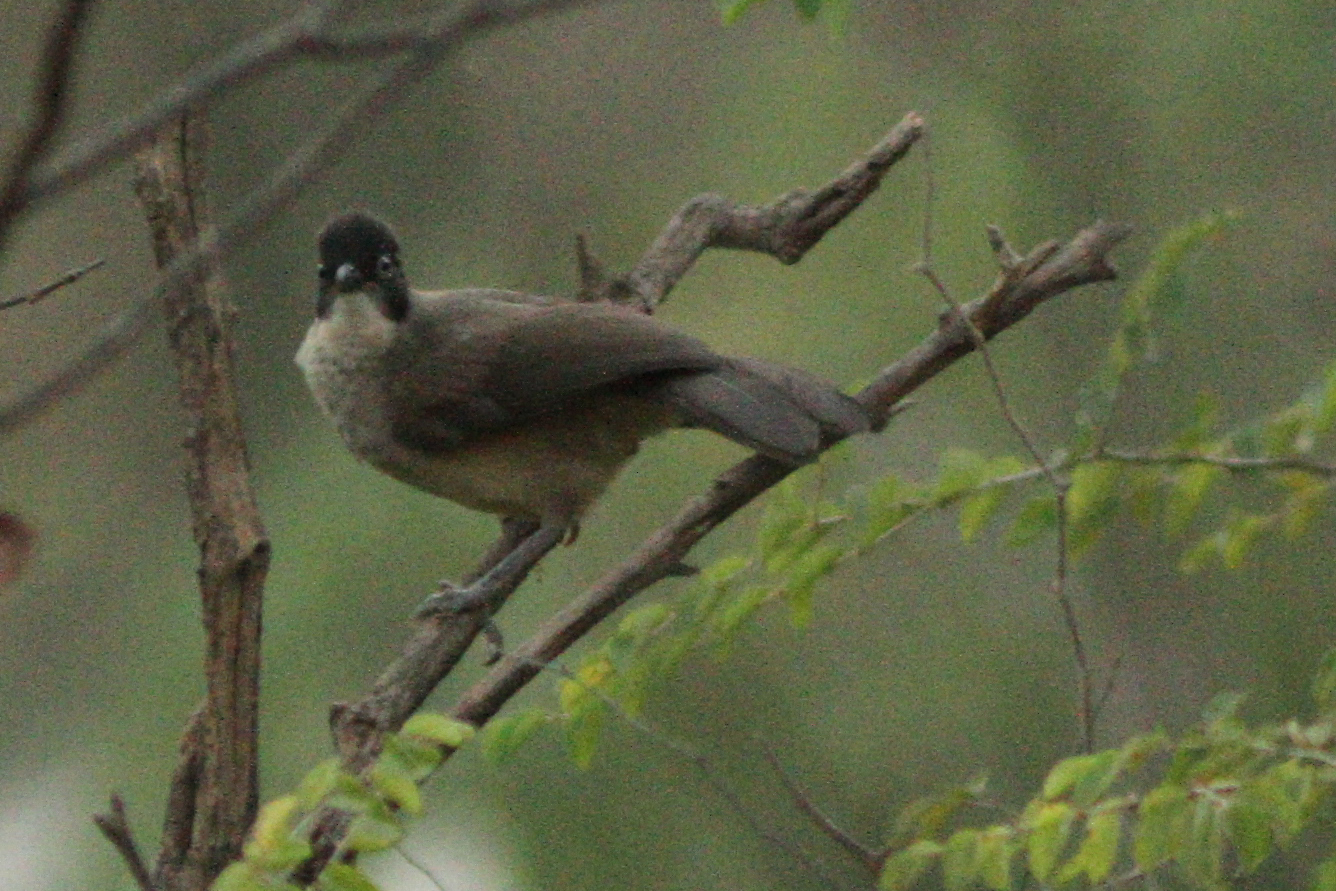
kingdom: Animalia
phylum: Chordata
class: Aves
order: Passeriformes
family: Leiothrichidae
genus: Turdoides
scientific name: Turdoides reinwardtii
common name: Blackcap babbler
